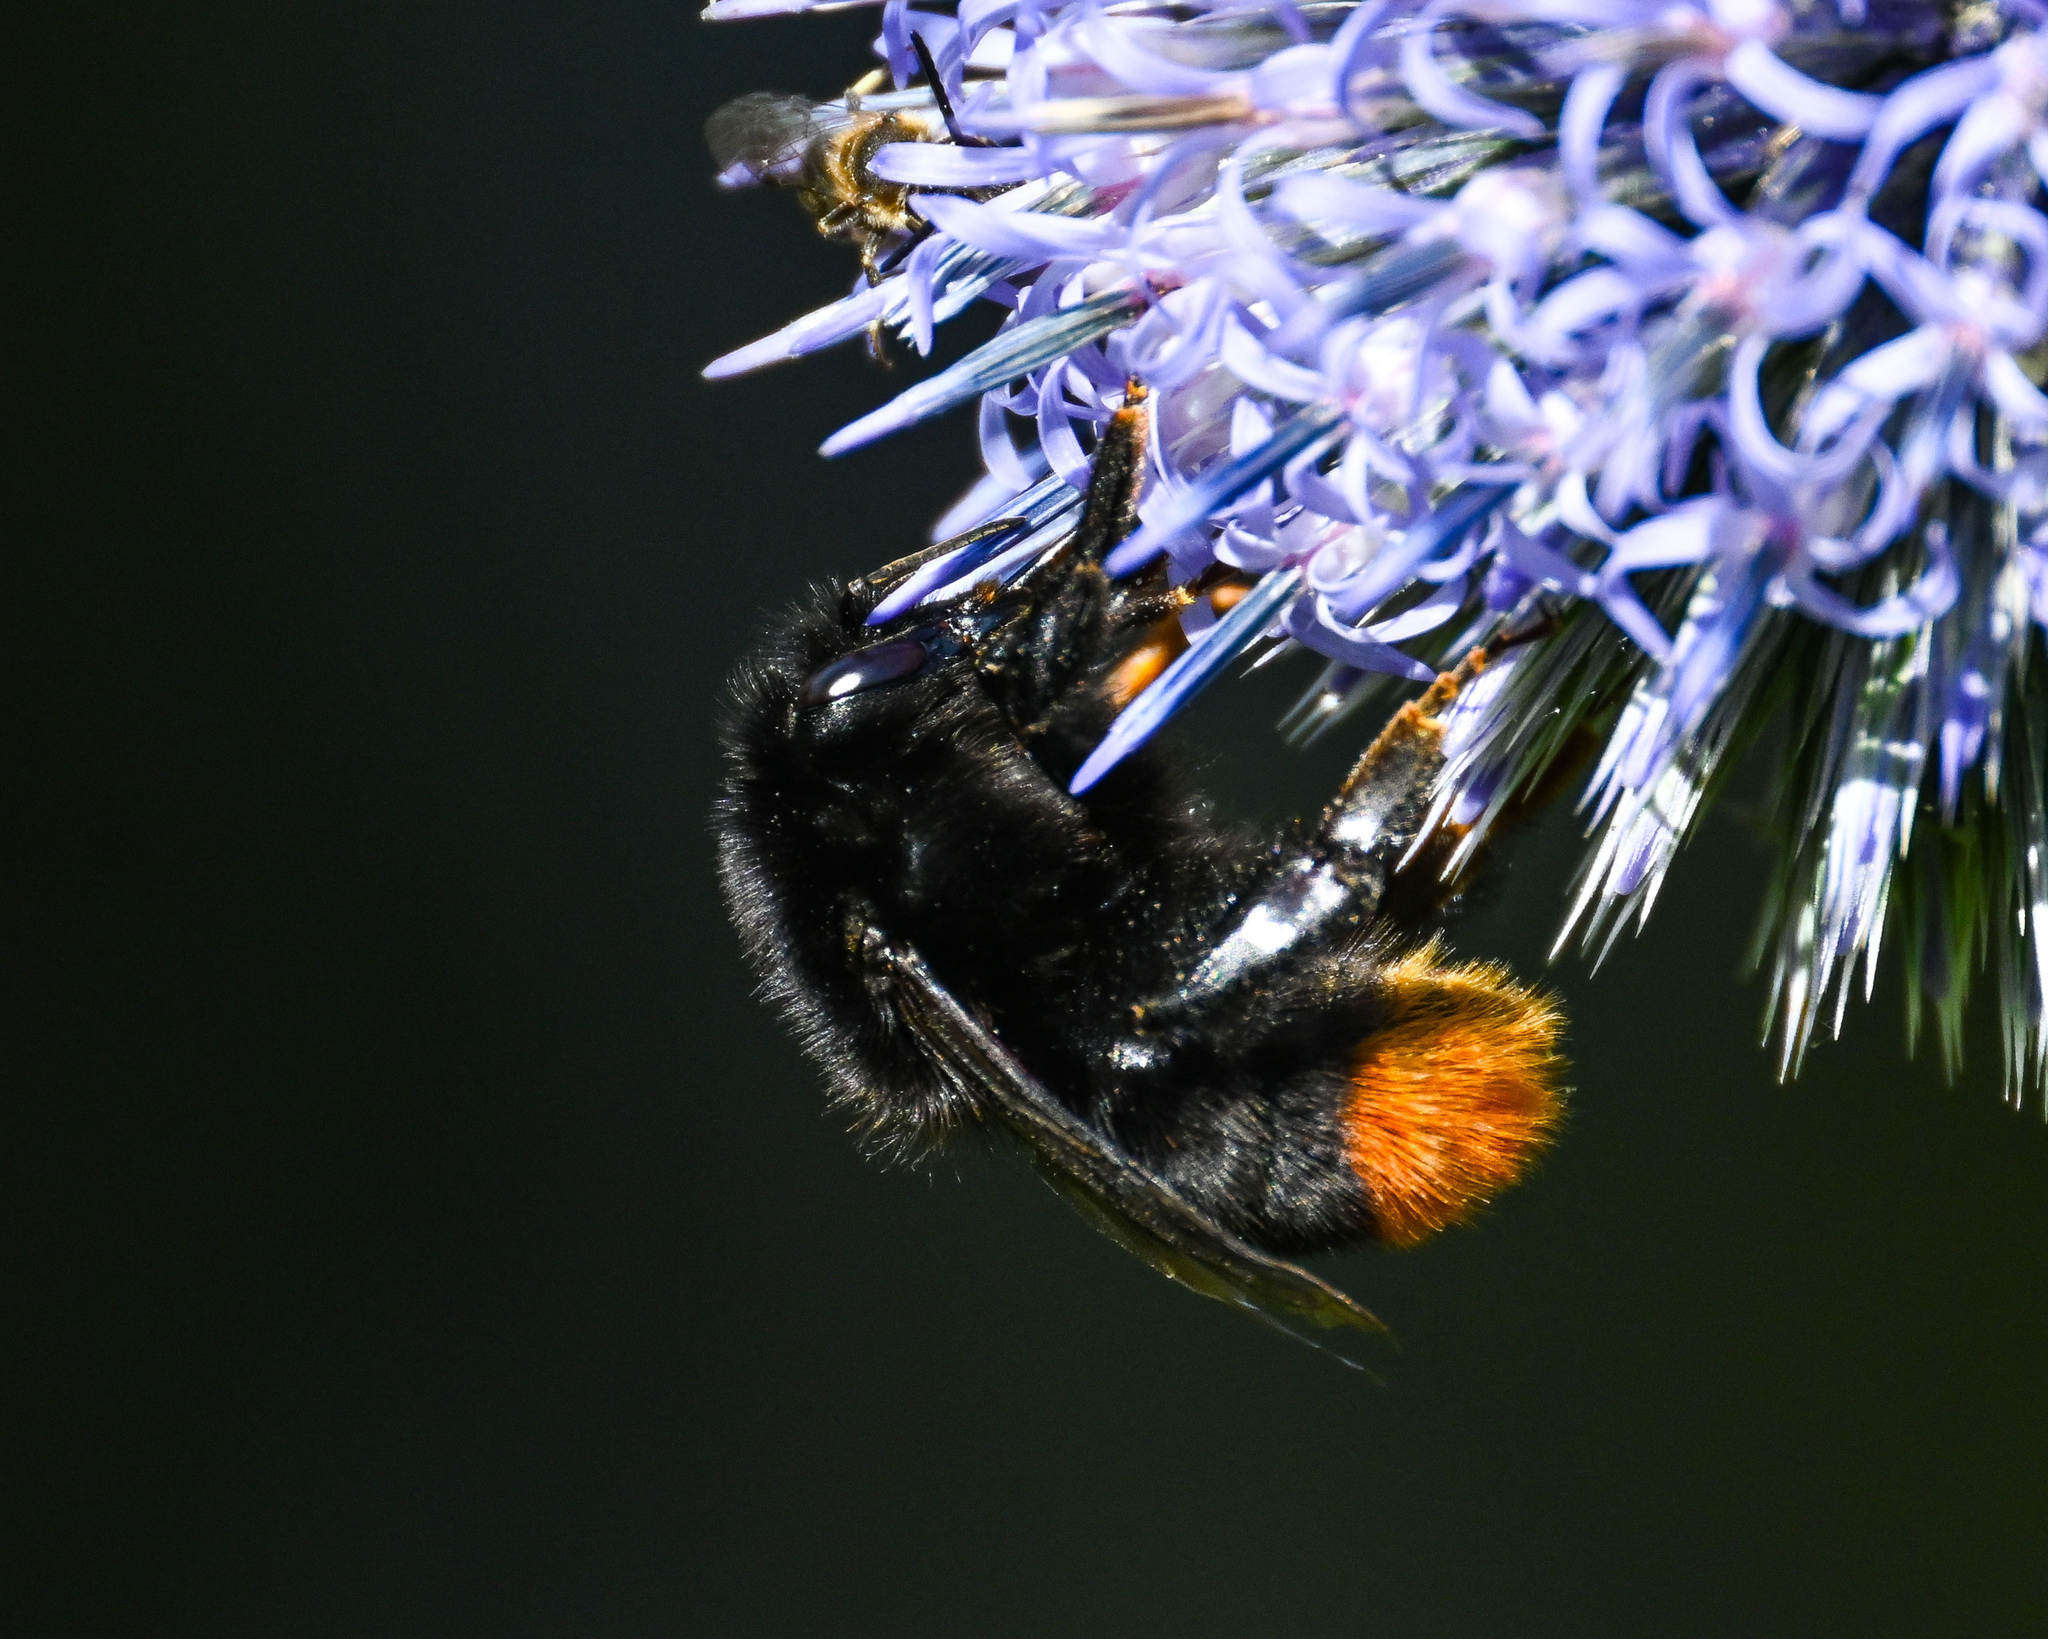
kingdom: Animalia
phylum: Arthropoda
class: Insecta
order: Hymenoptera
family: Apidae
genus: Bombus
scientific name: Bombus lapidarius
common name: Large red-tailed humble-bee
